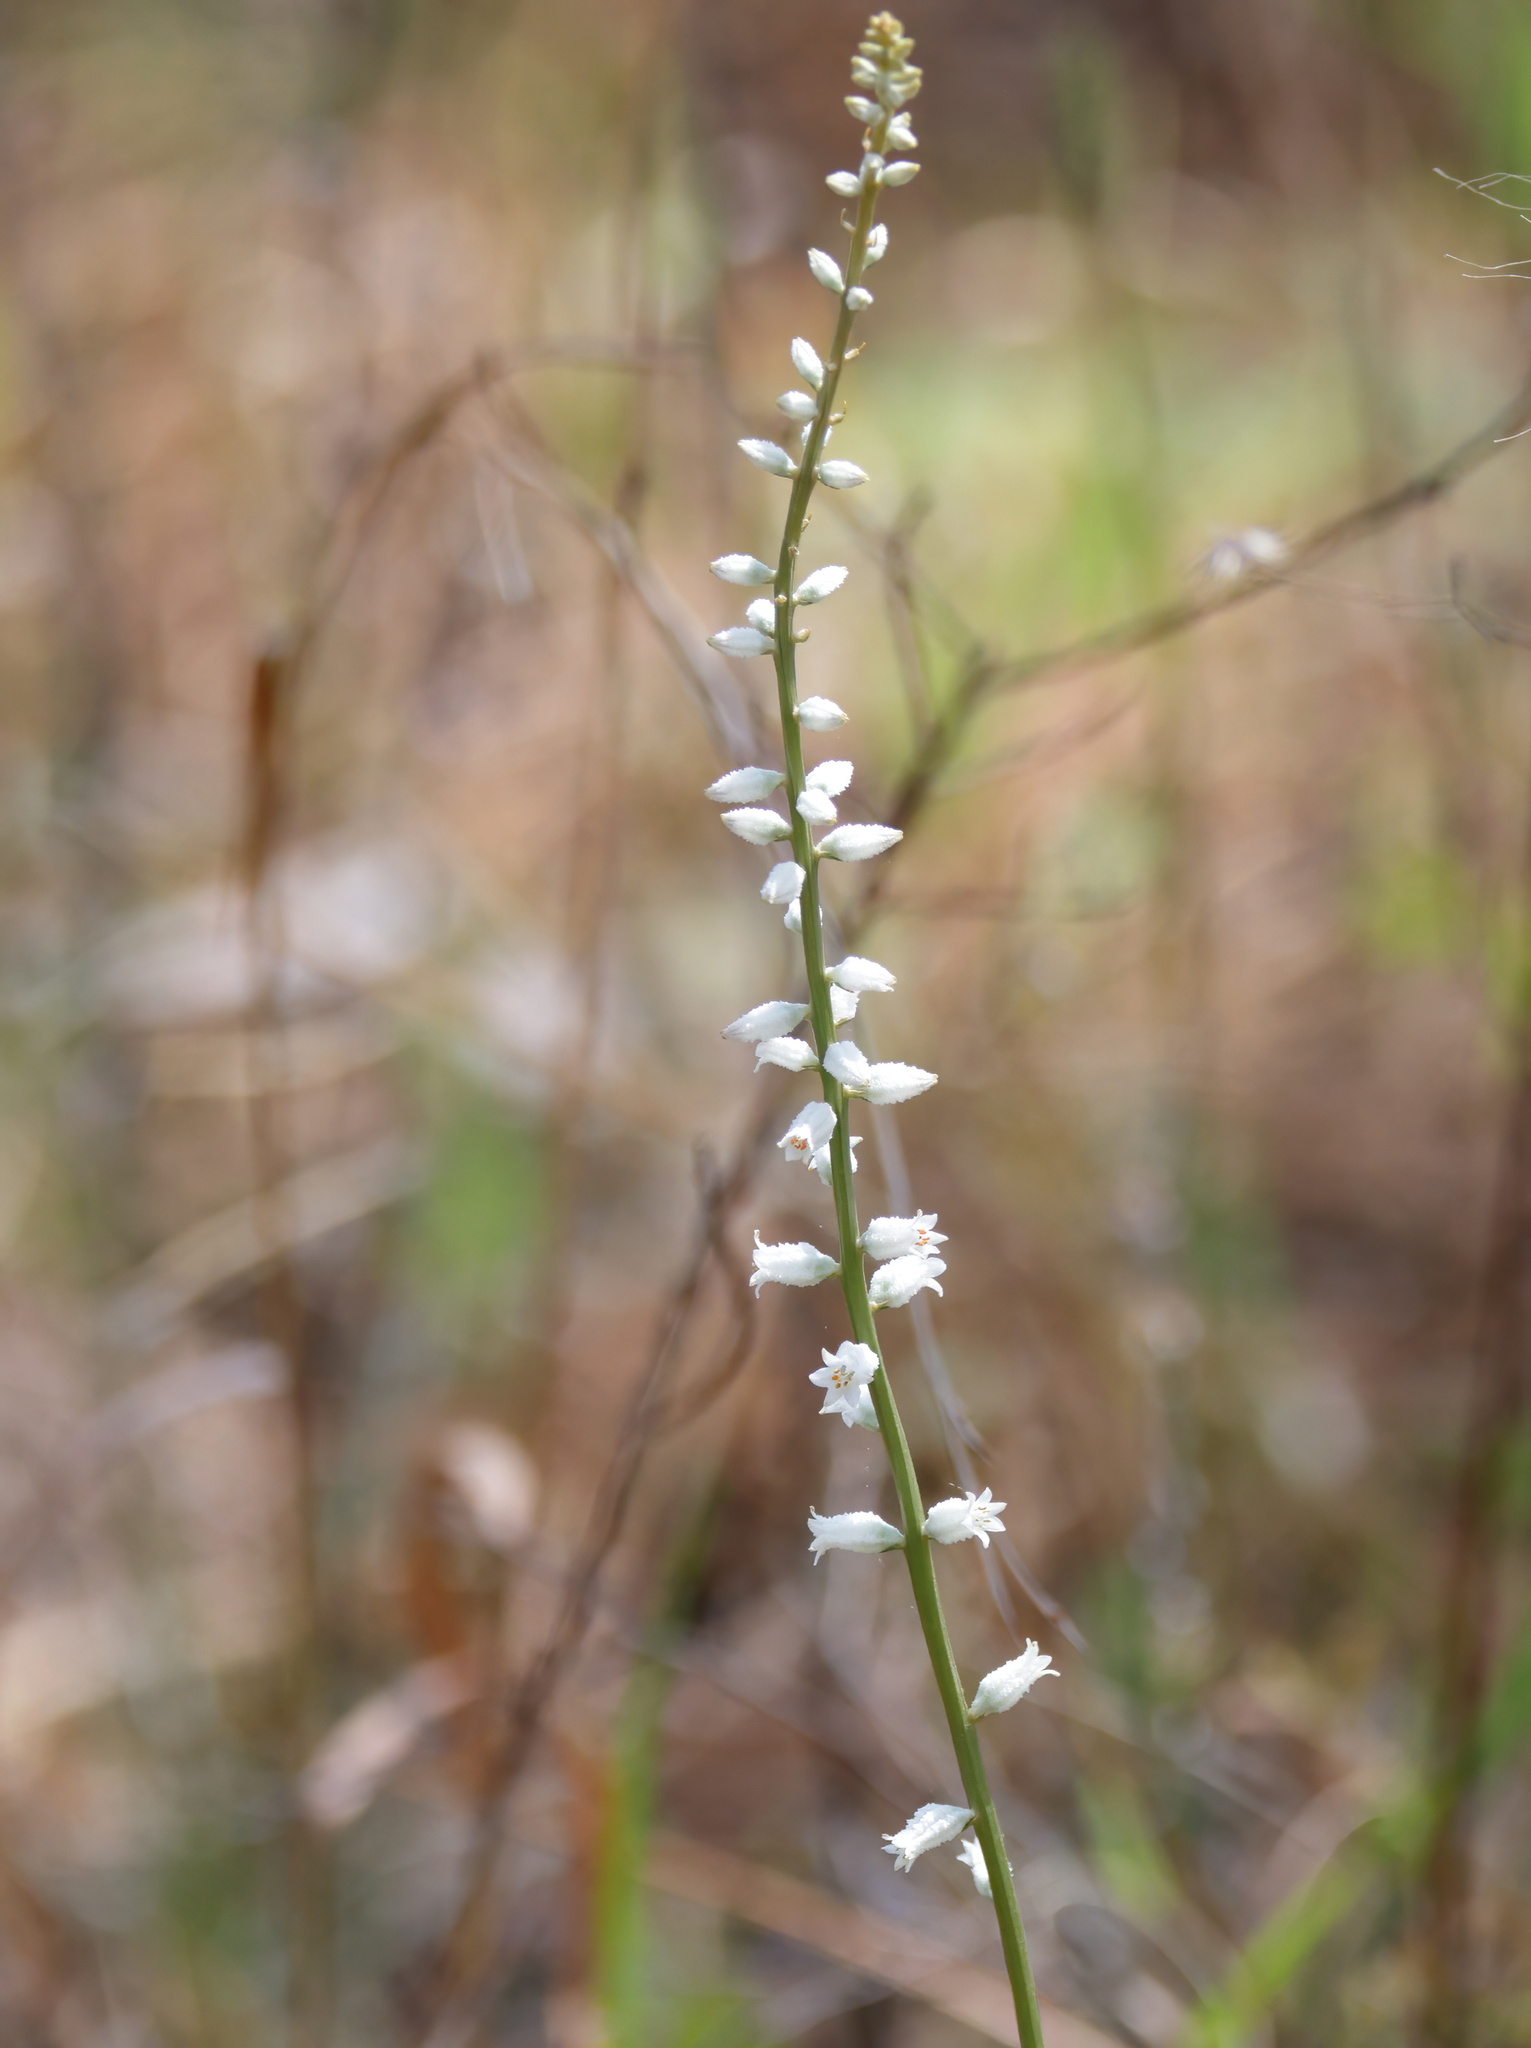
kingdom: Plantae
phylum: Tracheophyta
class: Liliopsida
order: Dioscoreales
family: Nartheciaceae
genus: Aletris
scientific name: Aletris farinosa
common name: Colicroot
